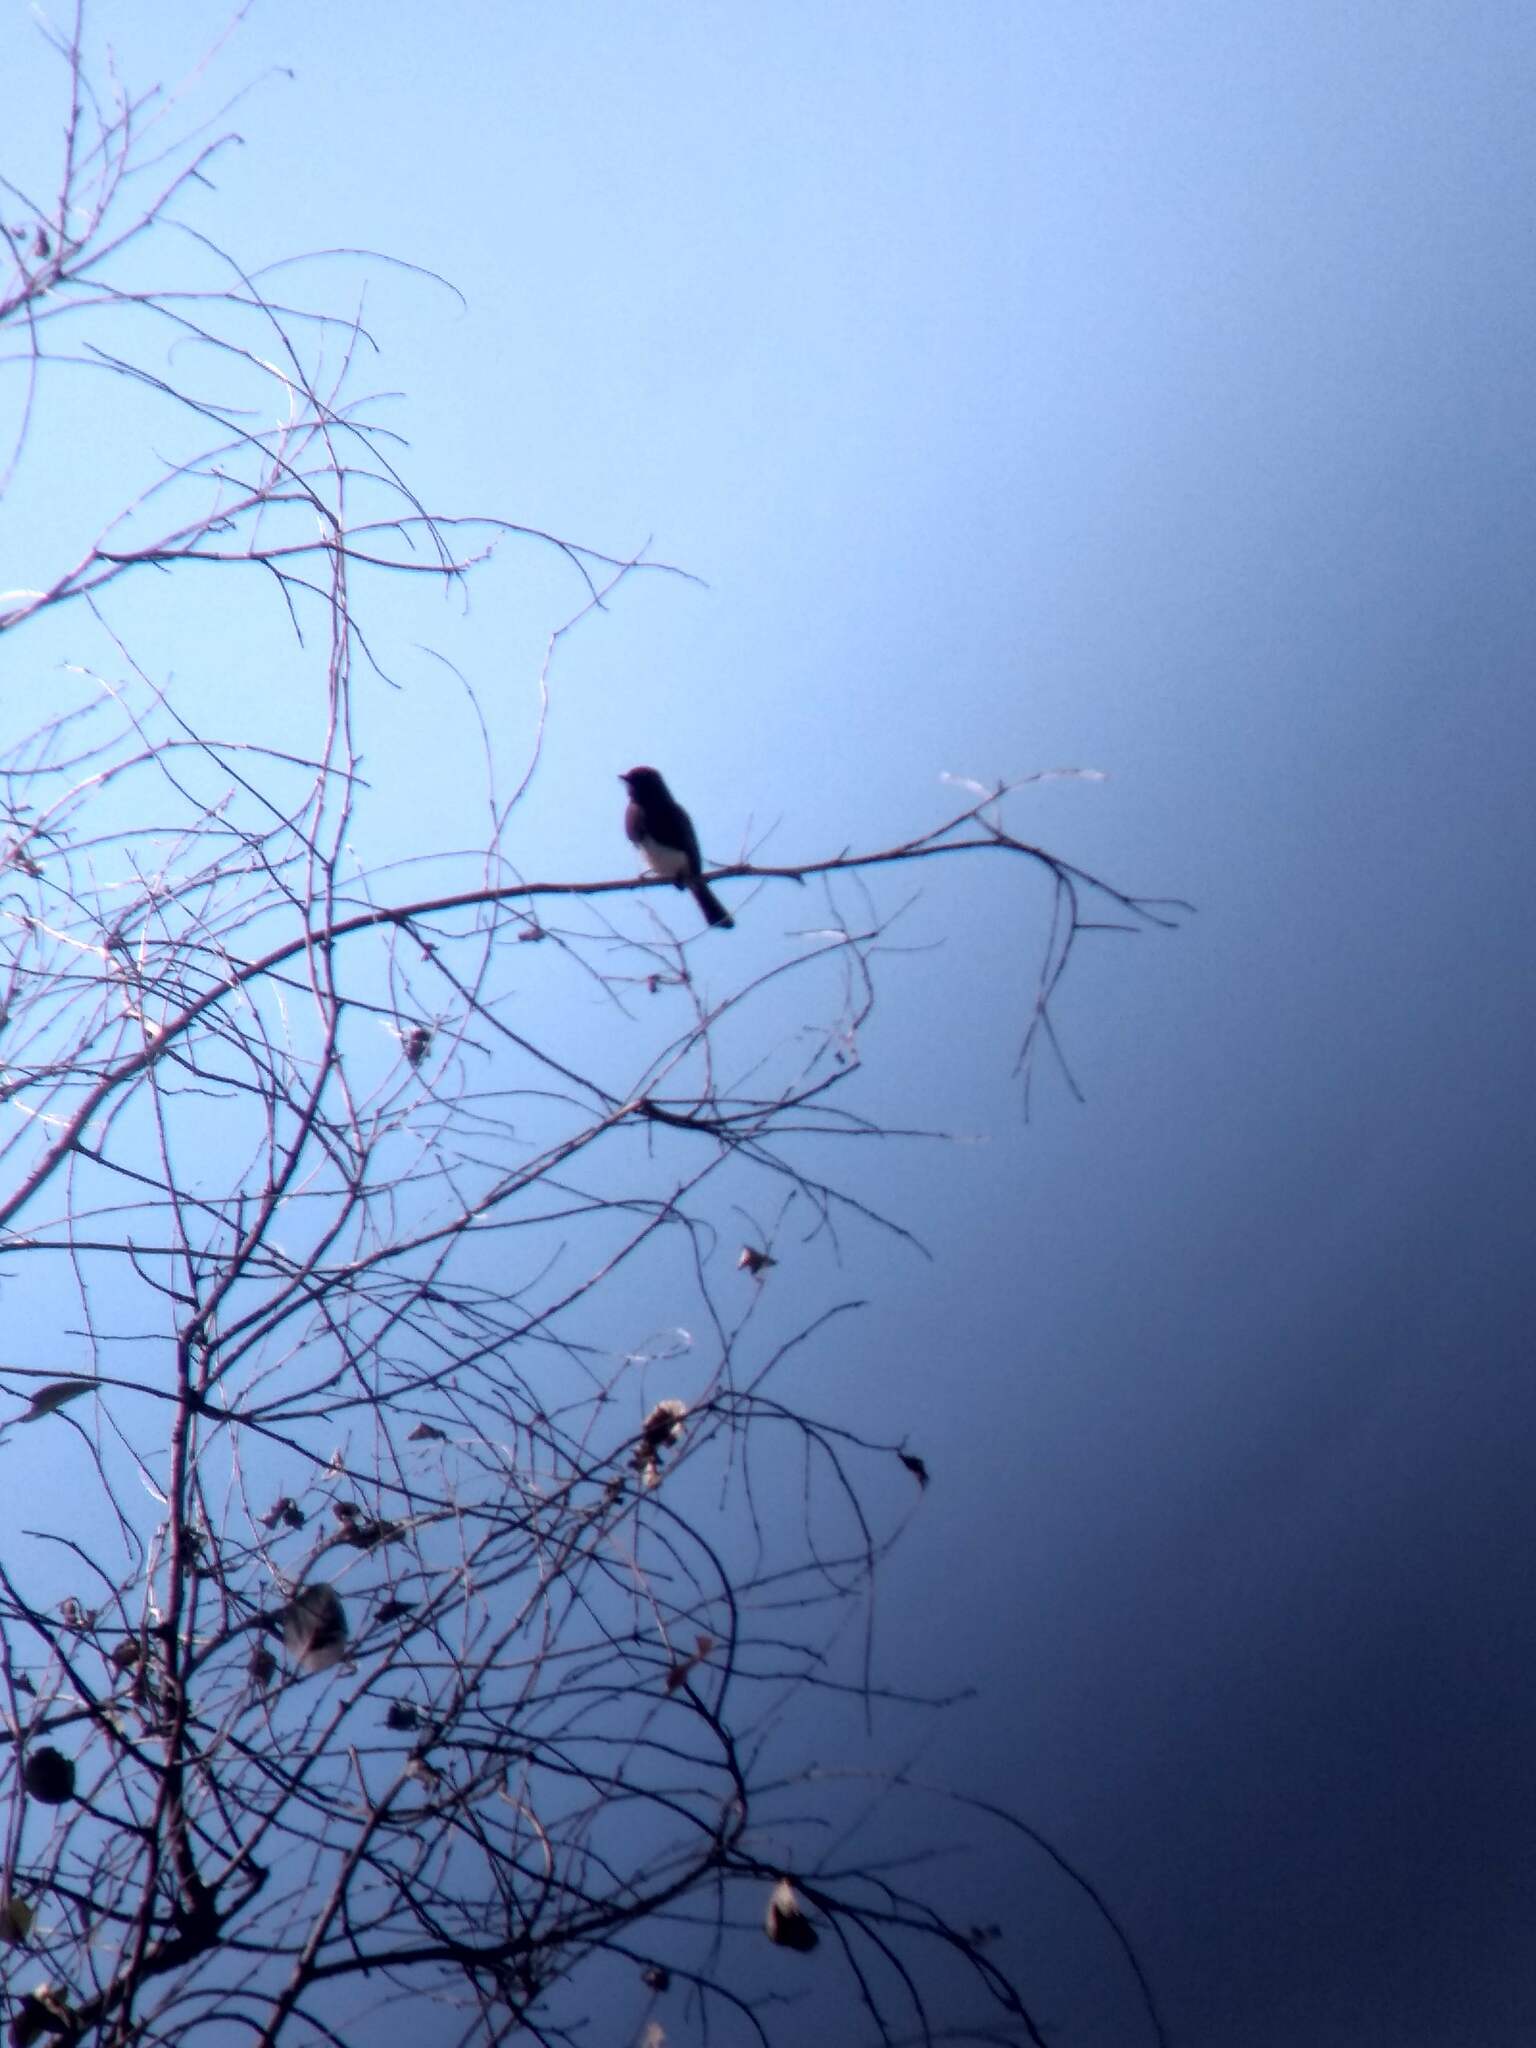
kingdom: Animalia
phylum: Chordata
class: Aves
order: Passeriformes
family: Tyrannidae
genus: Sayornis
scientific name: Sayornis nigricans
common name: Black phoebe
